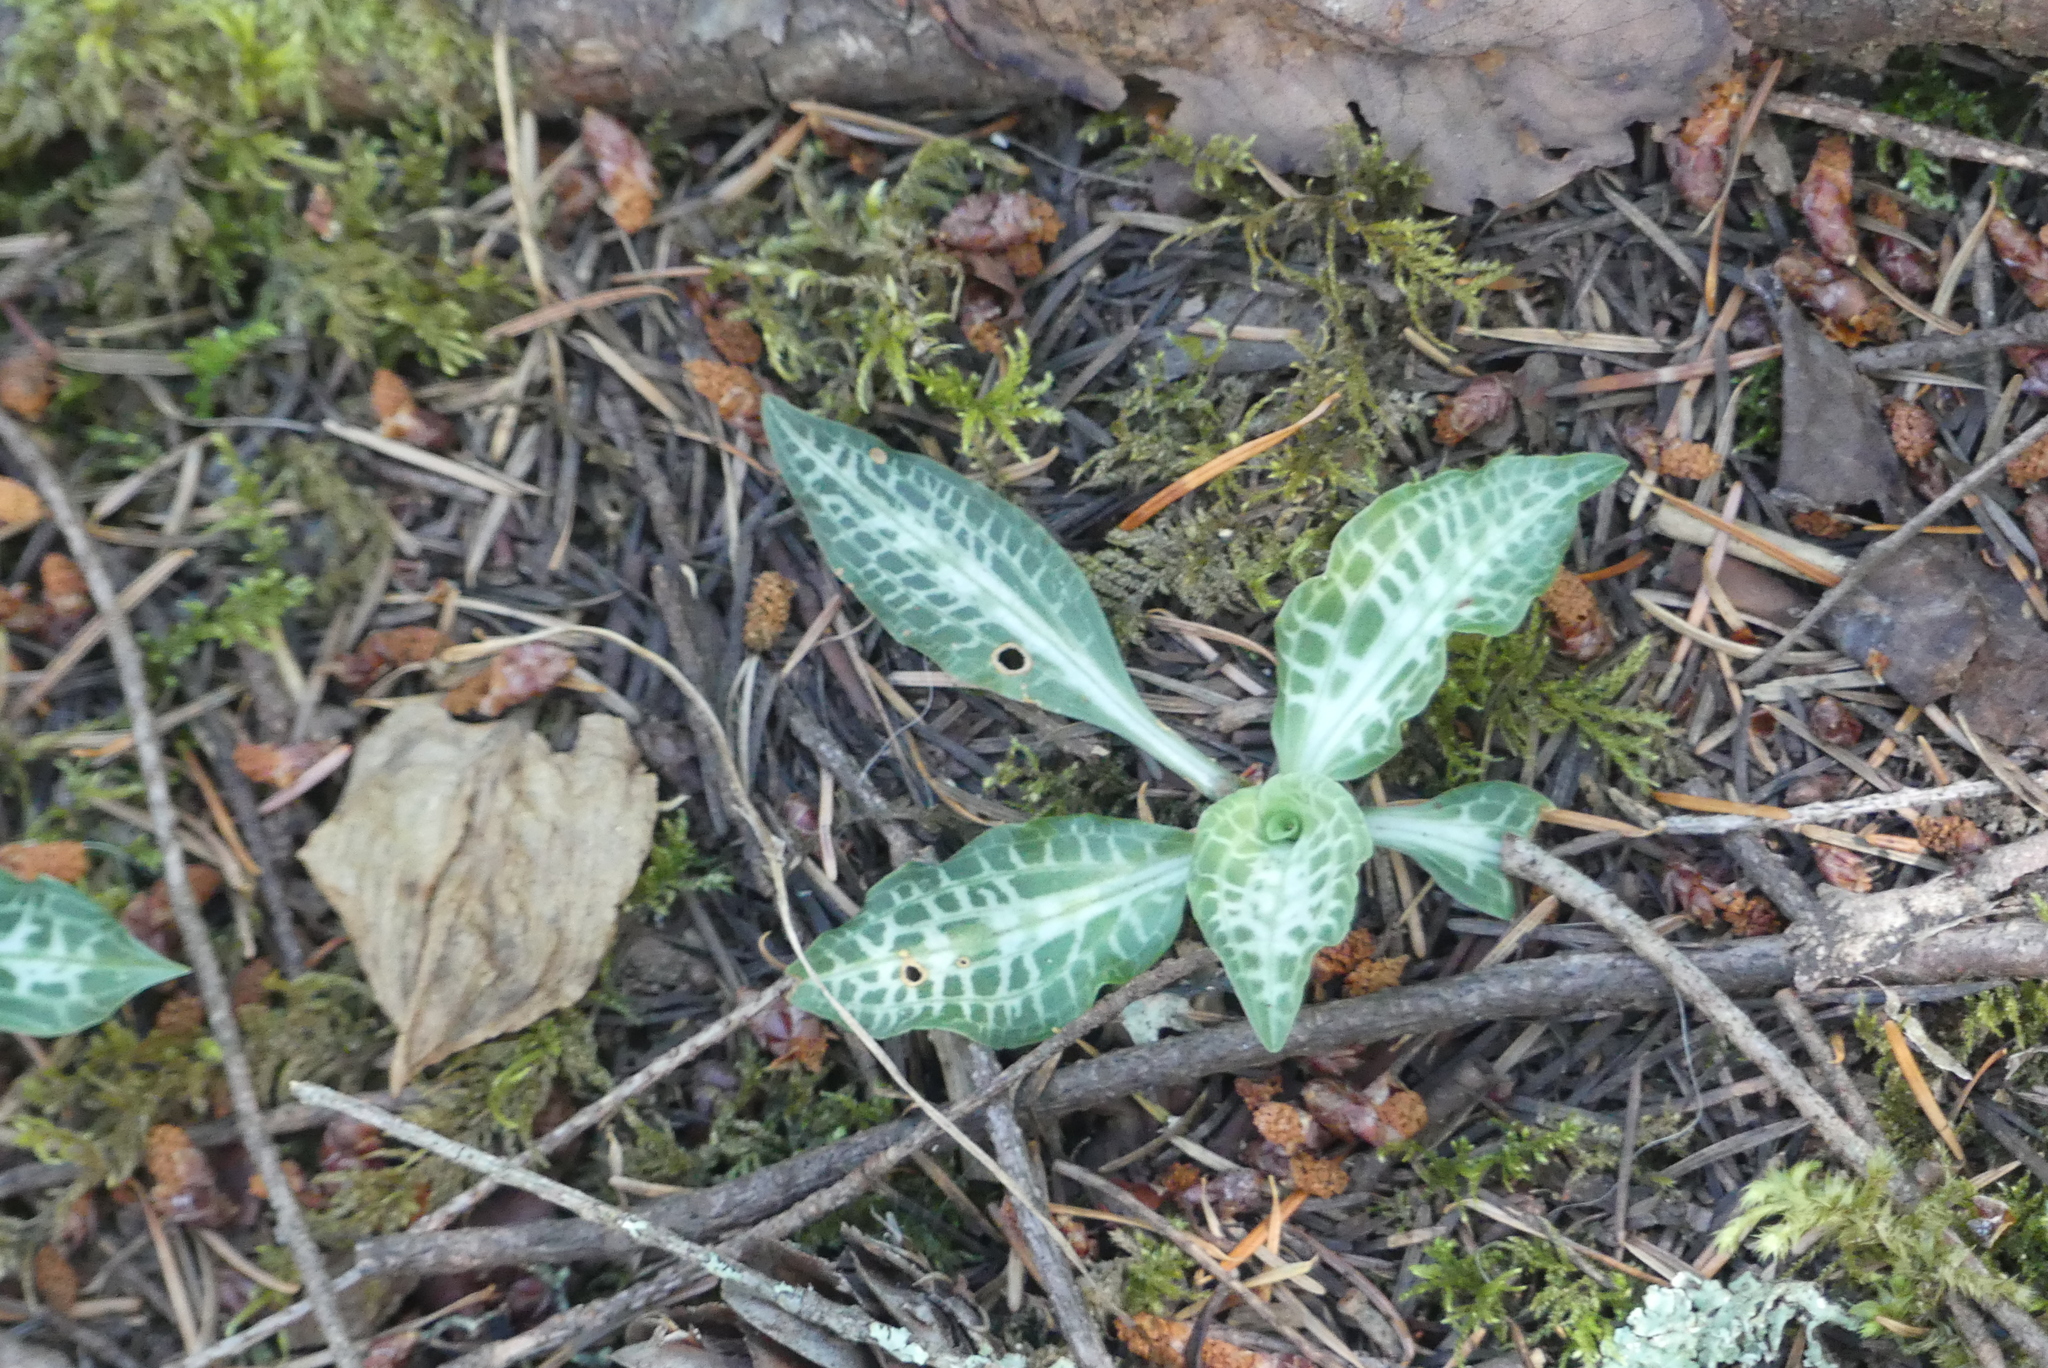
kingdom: Plantae
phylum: Tracheophyta
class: Liliopsida
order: Asparagales
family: Orchidaceae
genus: Goodyera
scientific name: Goodyera oblongifolia
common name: Giant rattlesnake-plantain
